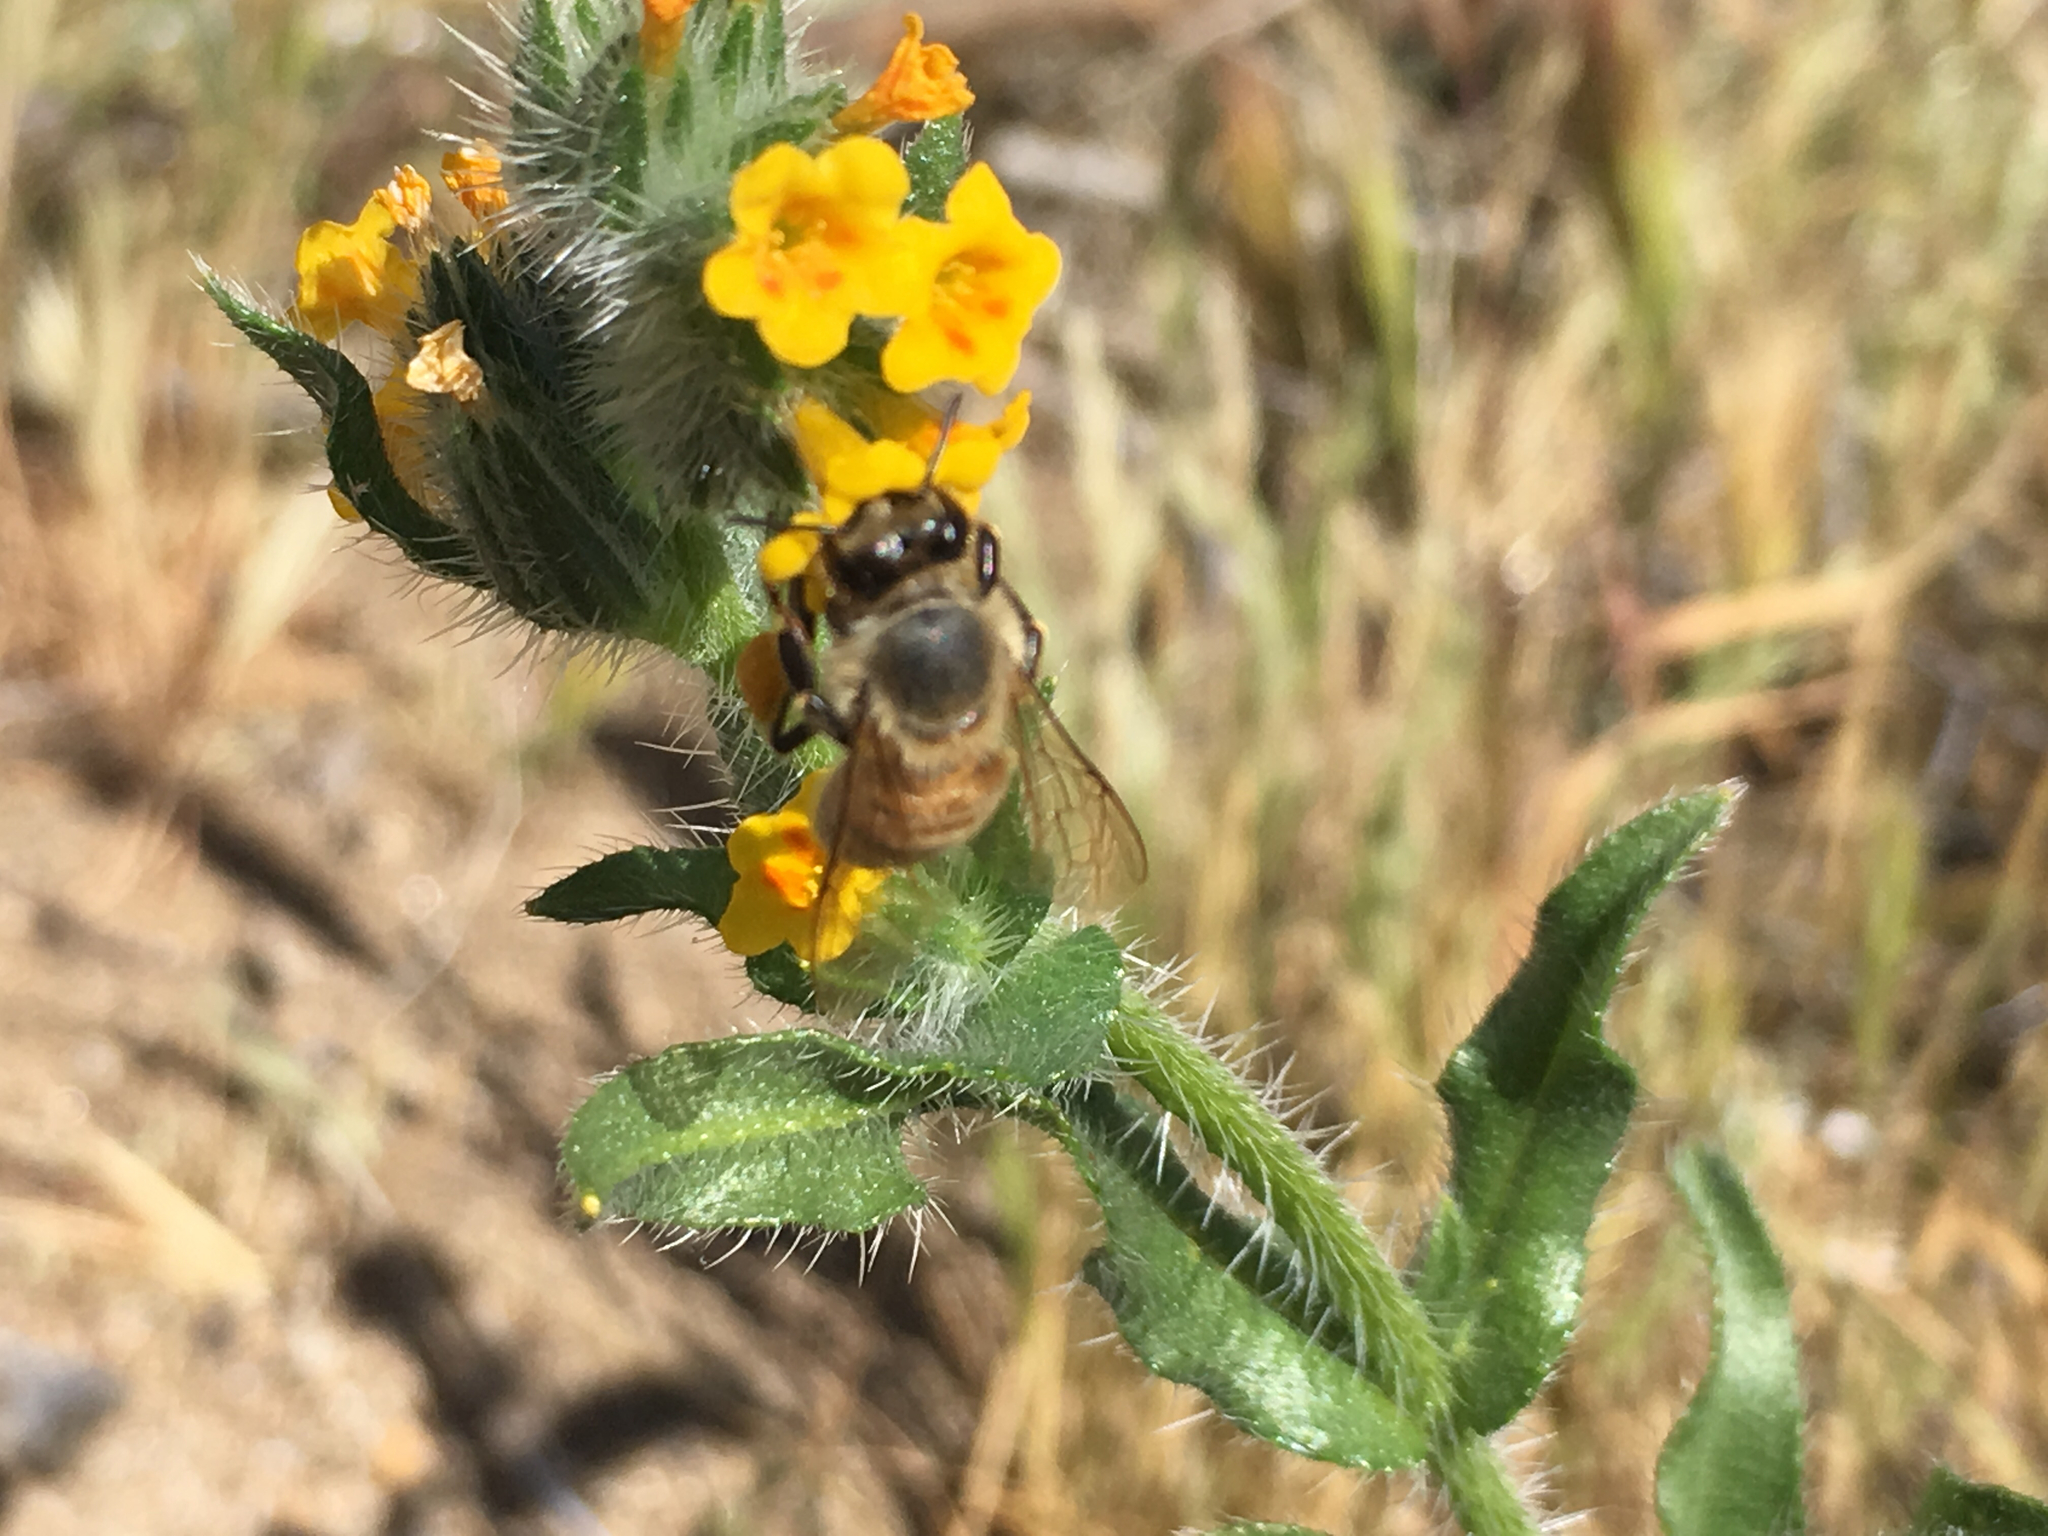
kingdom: Animalia
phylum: Arthropoda
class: Insecta
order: Hymenoptera
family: Apidae
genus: Apis
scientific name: Apis mellifera
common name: Honey bee
